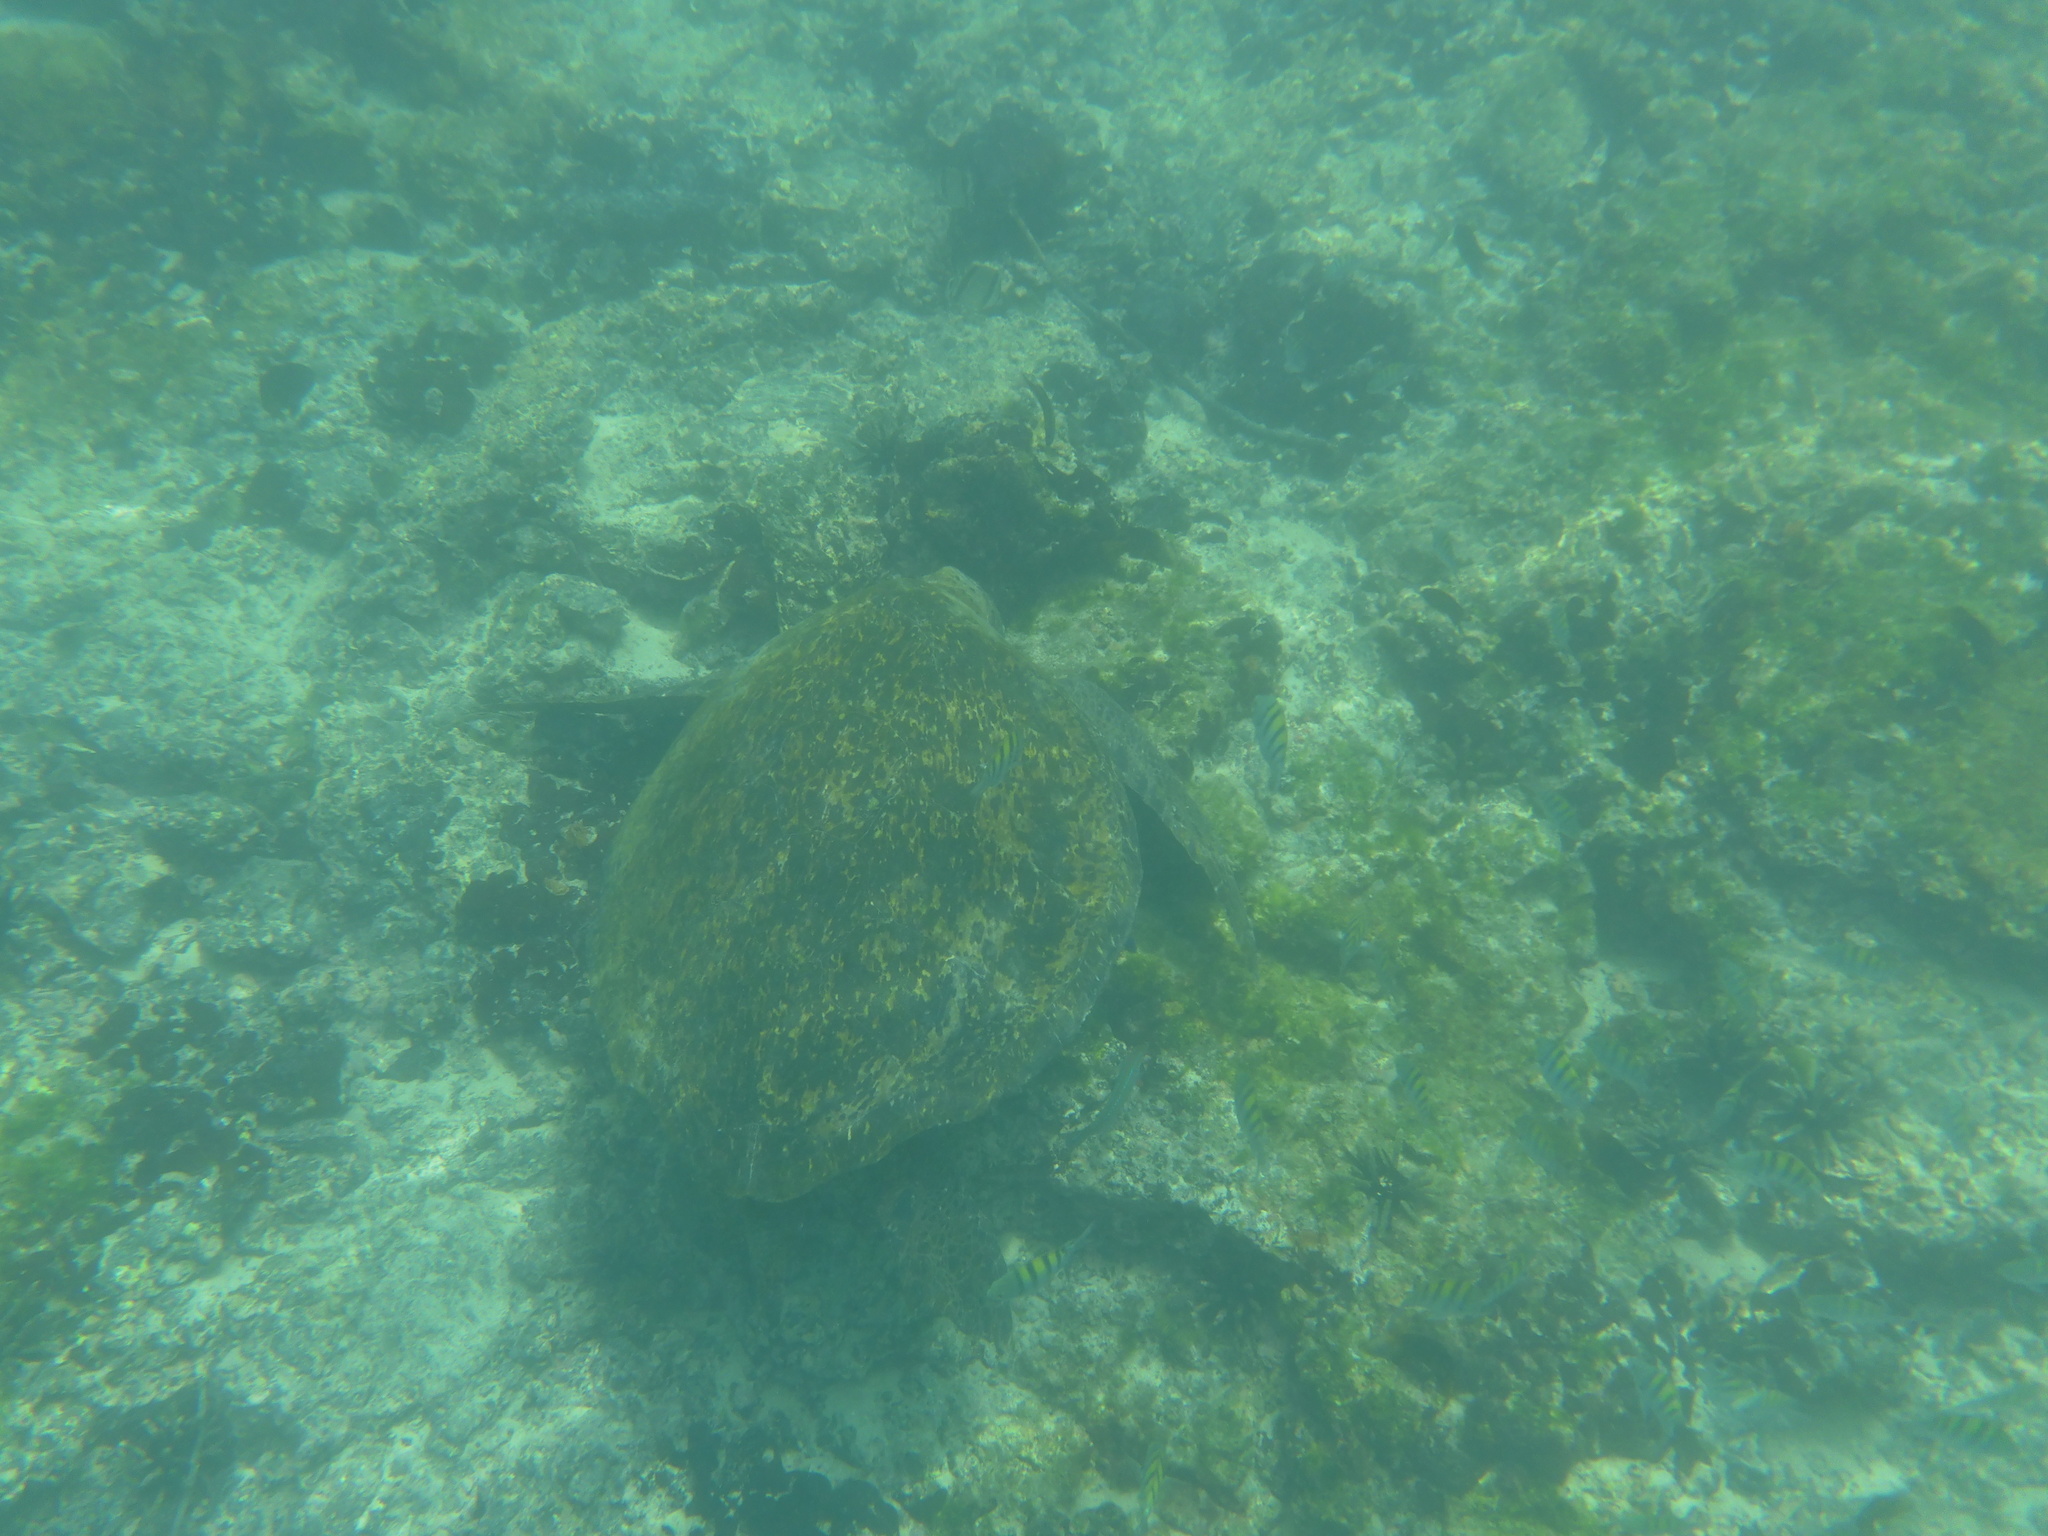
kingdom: Animalia
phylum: Chordata
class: Testudines
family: Cheloniidae
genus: Chelonia
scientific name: Chelonia mydas
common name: Green turtle
